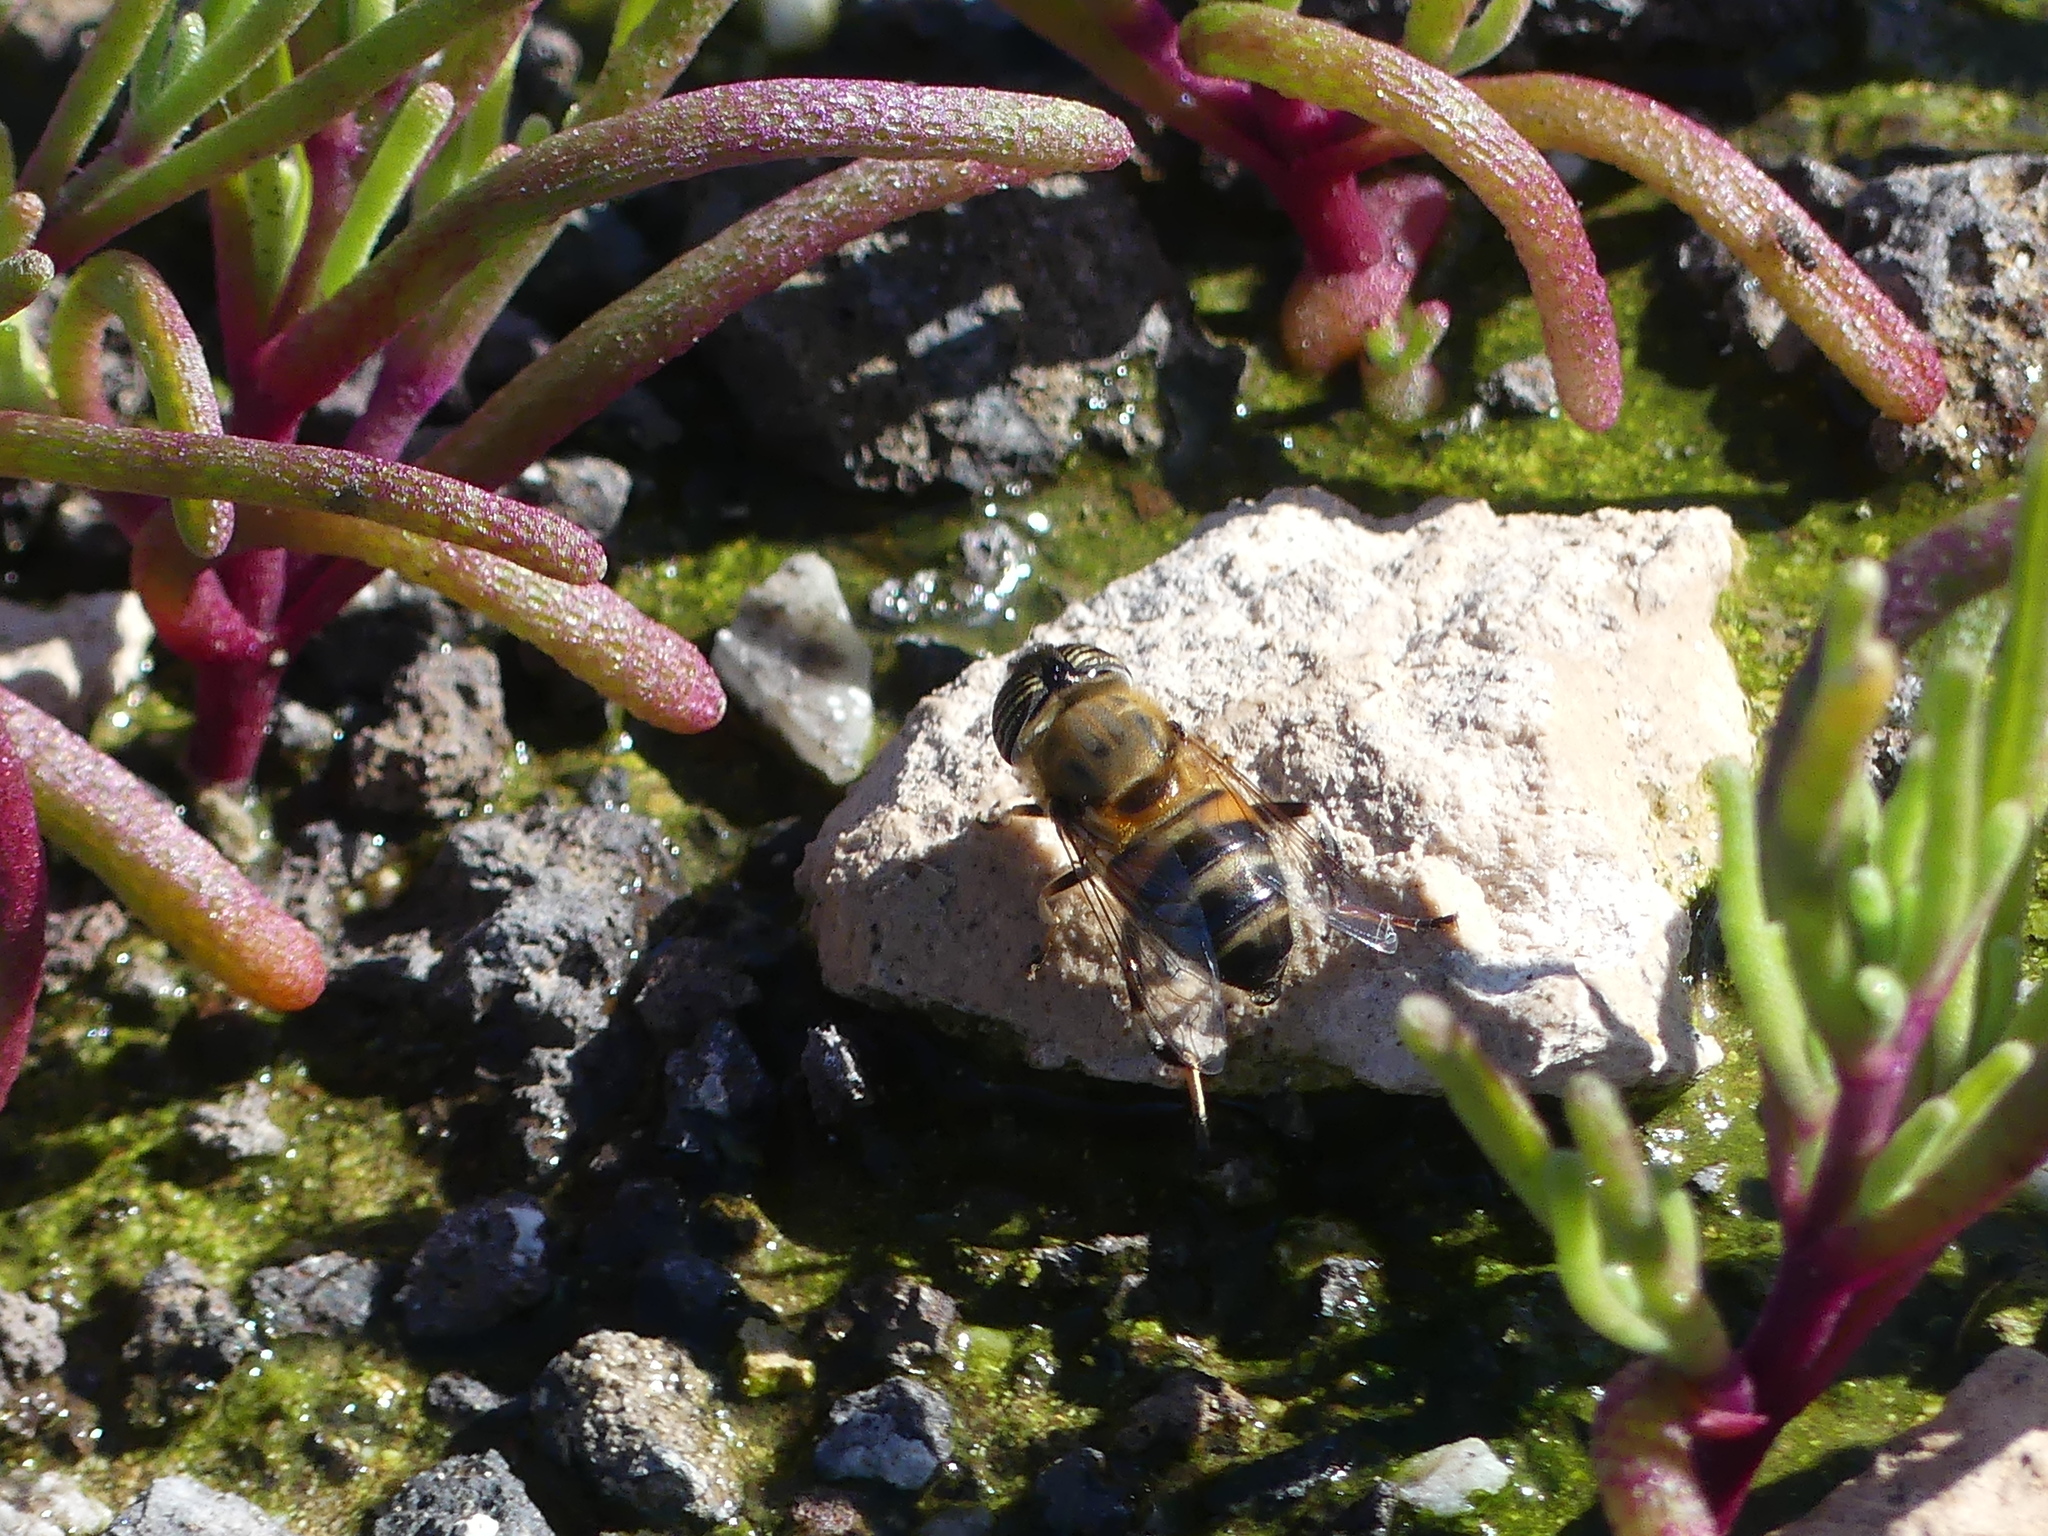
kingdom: Animalia
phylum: Arthropoda
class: Insecta
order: Diptera
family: Syrphidae
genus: Eristalinus
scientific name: Eristalinus taeniops
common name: Syrphid fly
